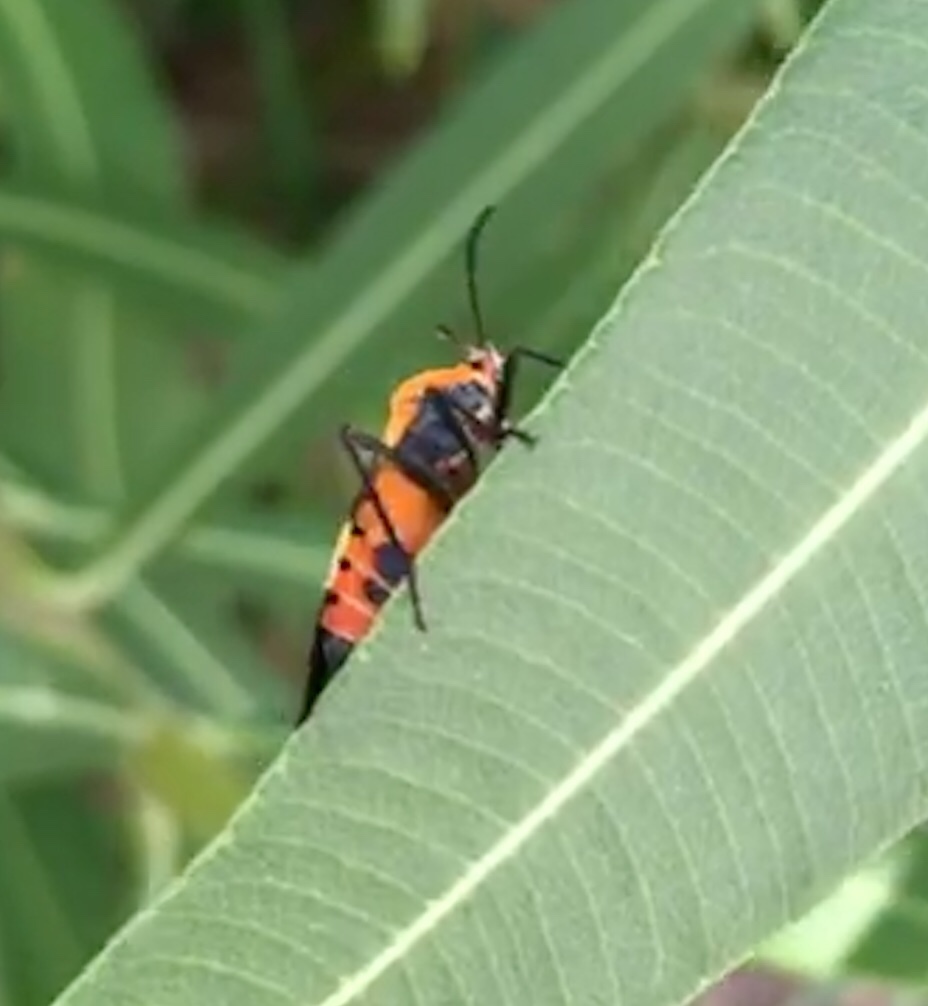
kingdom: Animalia
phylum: Arthropoda
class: Insecta
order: Hemiptera
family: Lygaeidae
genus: Oncopeltus
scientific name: Oncopeltus fasciatus
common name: Large milkweed bug
